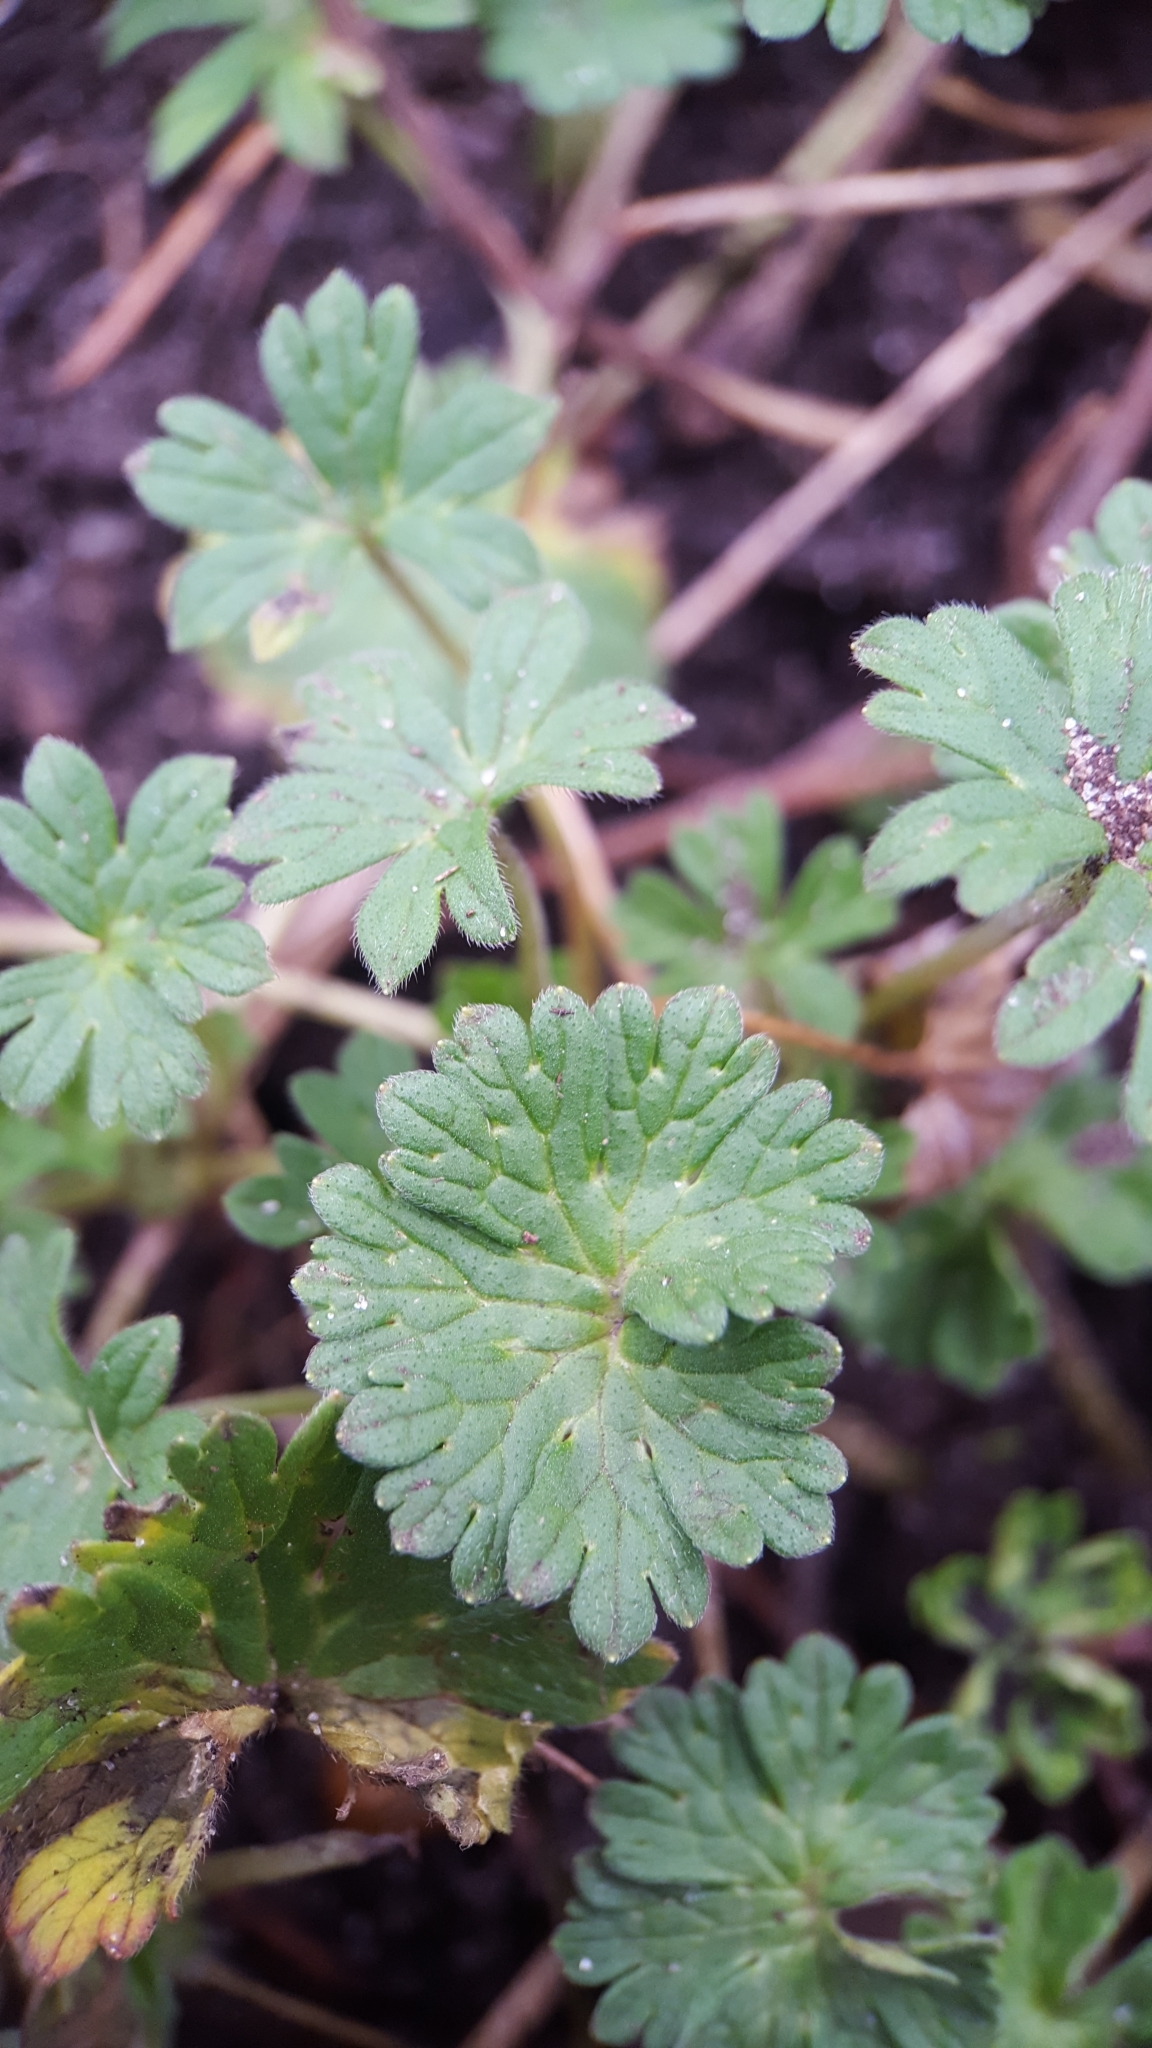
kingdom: Plantae
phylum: Tracheophyta
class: Magnoliopsida
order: Geraniales
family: Geraniaceae
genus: Geranium
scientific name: Geranium molle
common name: Dove's-foot crane's-bill
